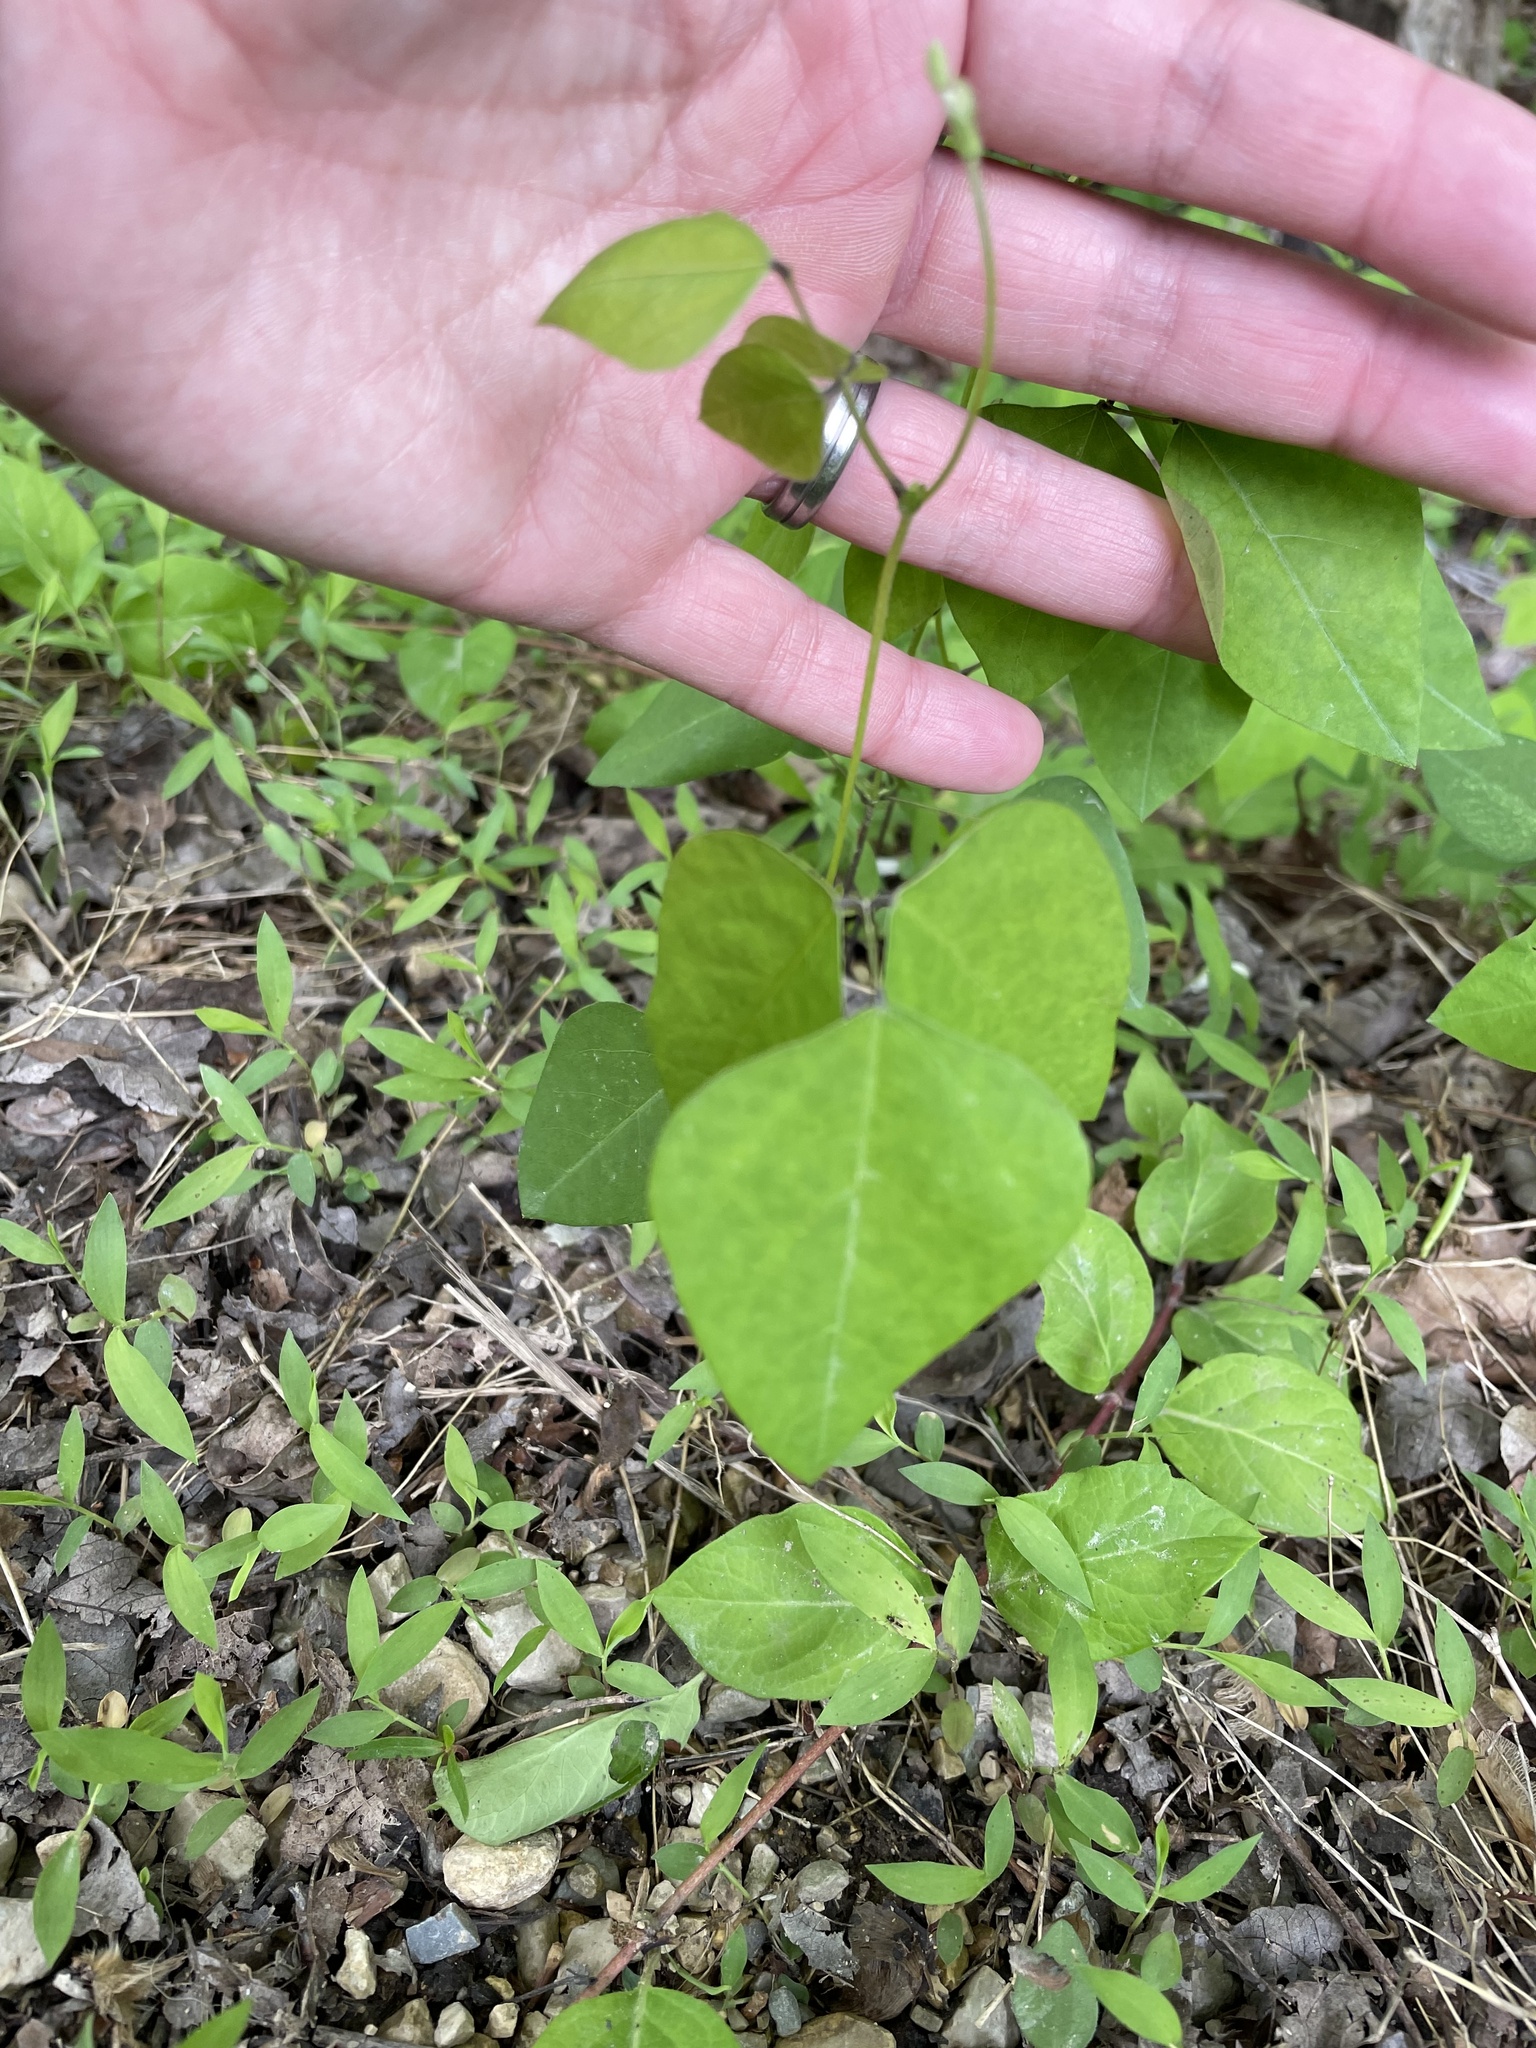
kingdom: Plantae
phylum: Tracheophyta
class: Magnoliopsida
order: Fabales
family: Fabaceae
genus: Amphicarpaea
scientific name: Amphicarpaea bracteata
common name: American hog peanut
